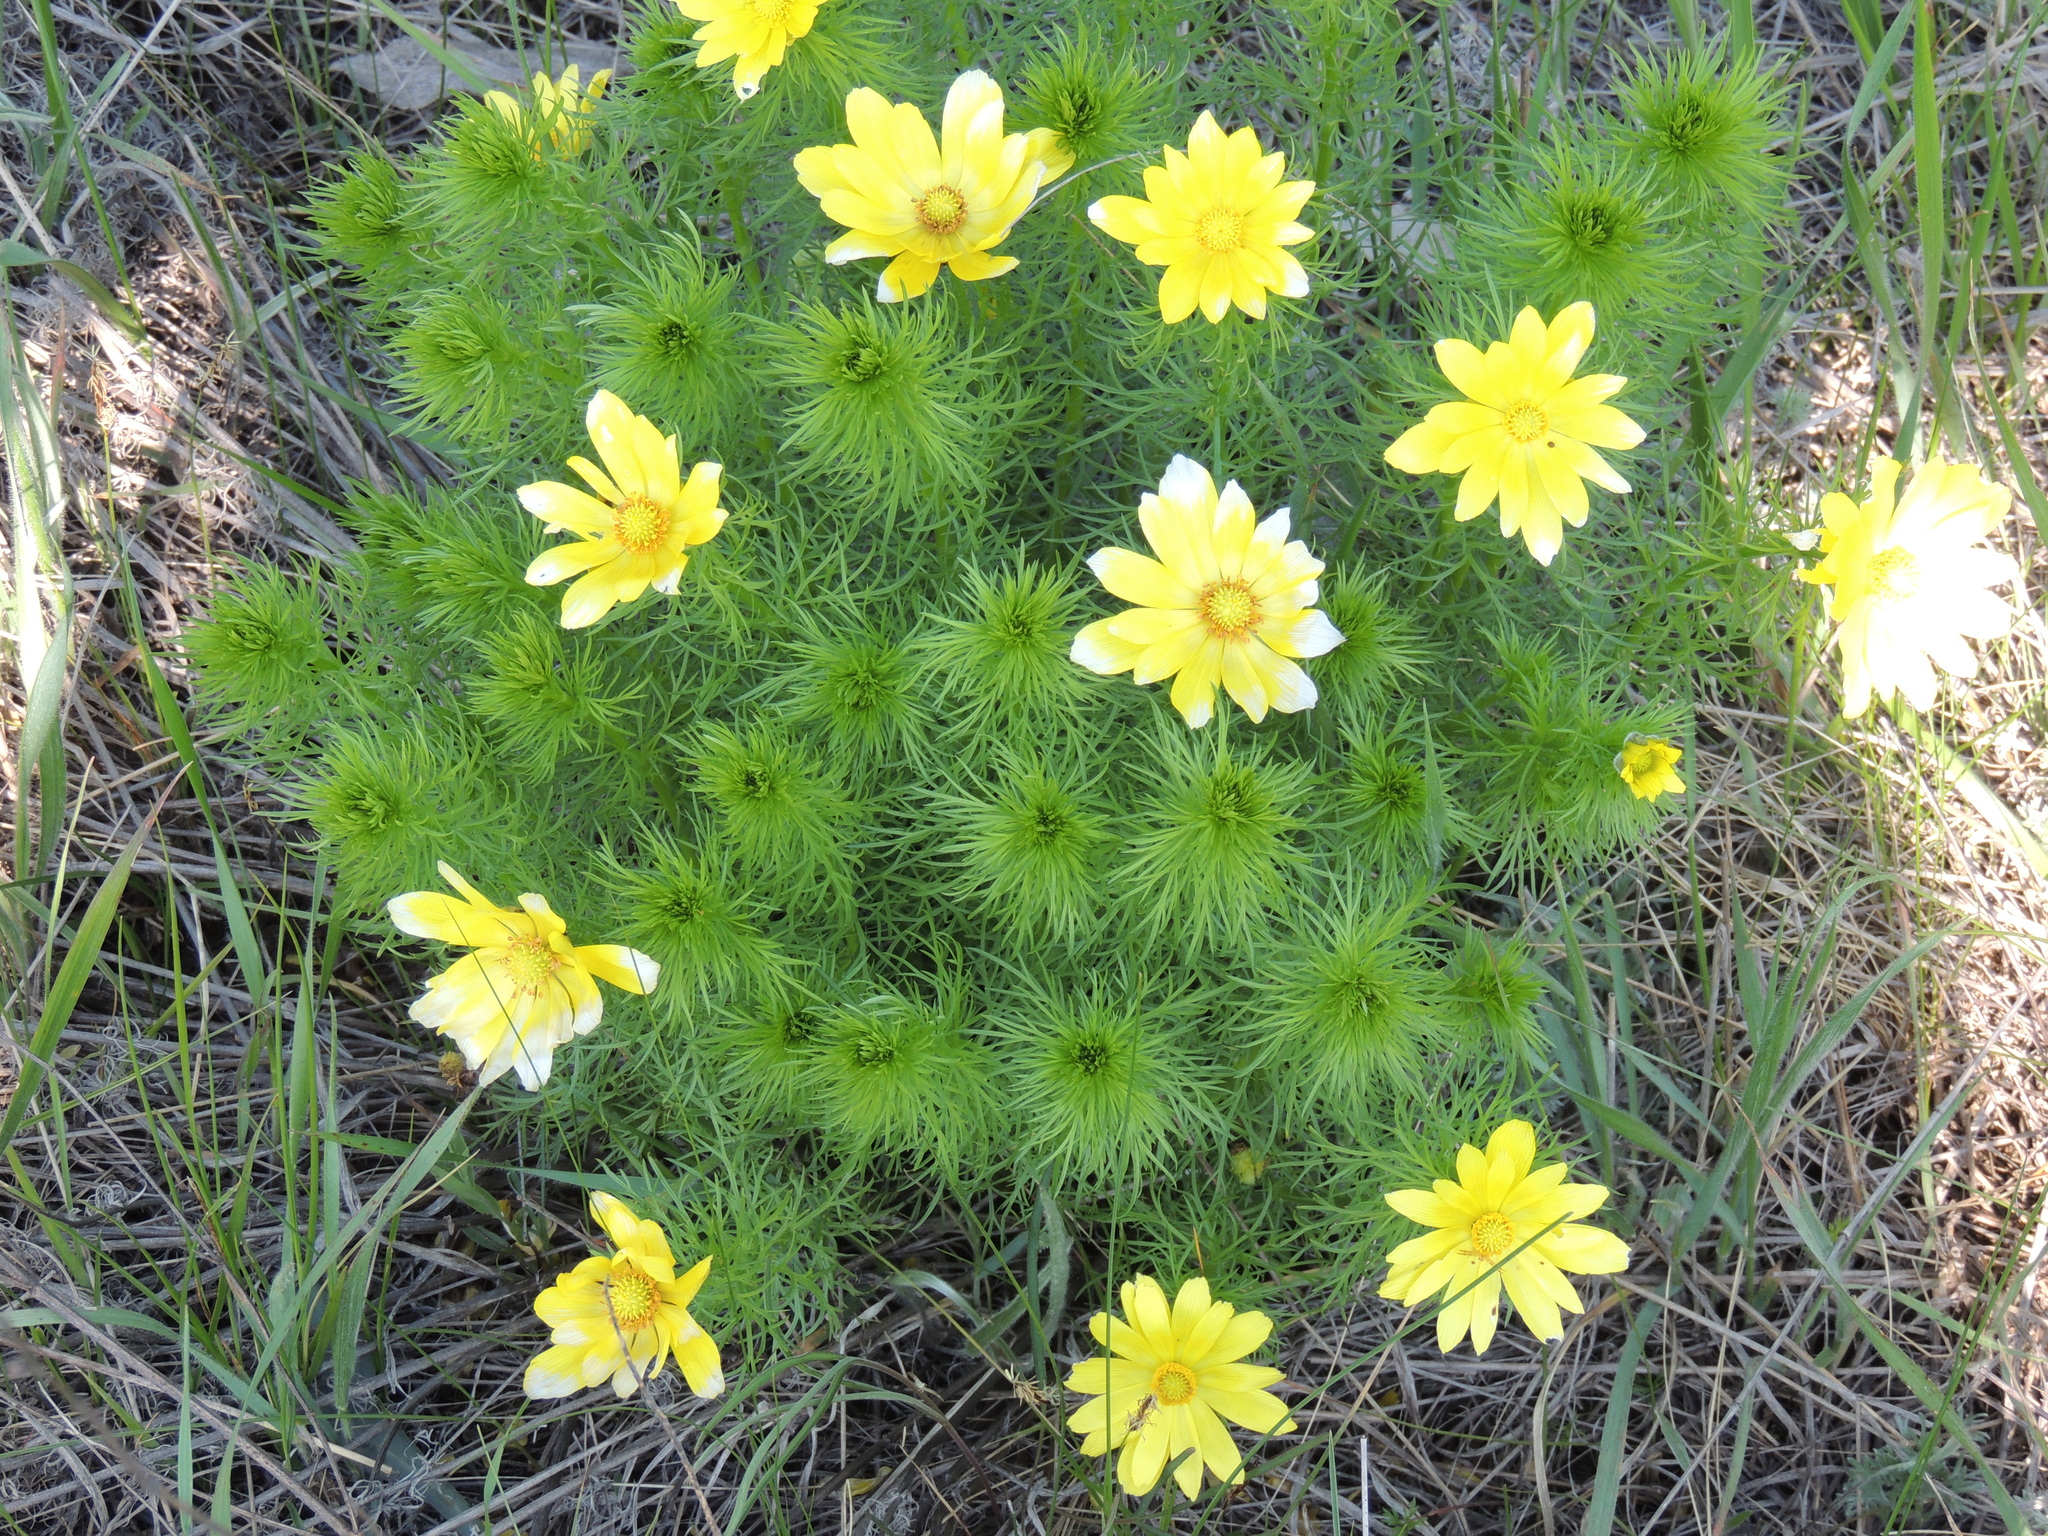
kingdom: Plantae
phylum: Tracheophyta
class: Magnoliopsida
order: Ranunculales
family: Ranunculaceae
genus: Adonis
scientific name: Adonis vernalis
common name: Yellow pheasants-eye
